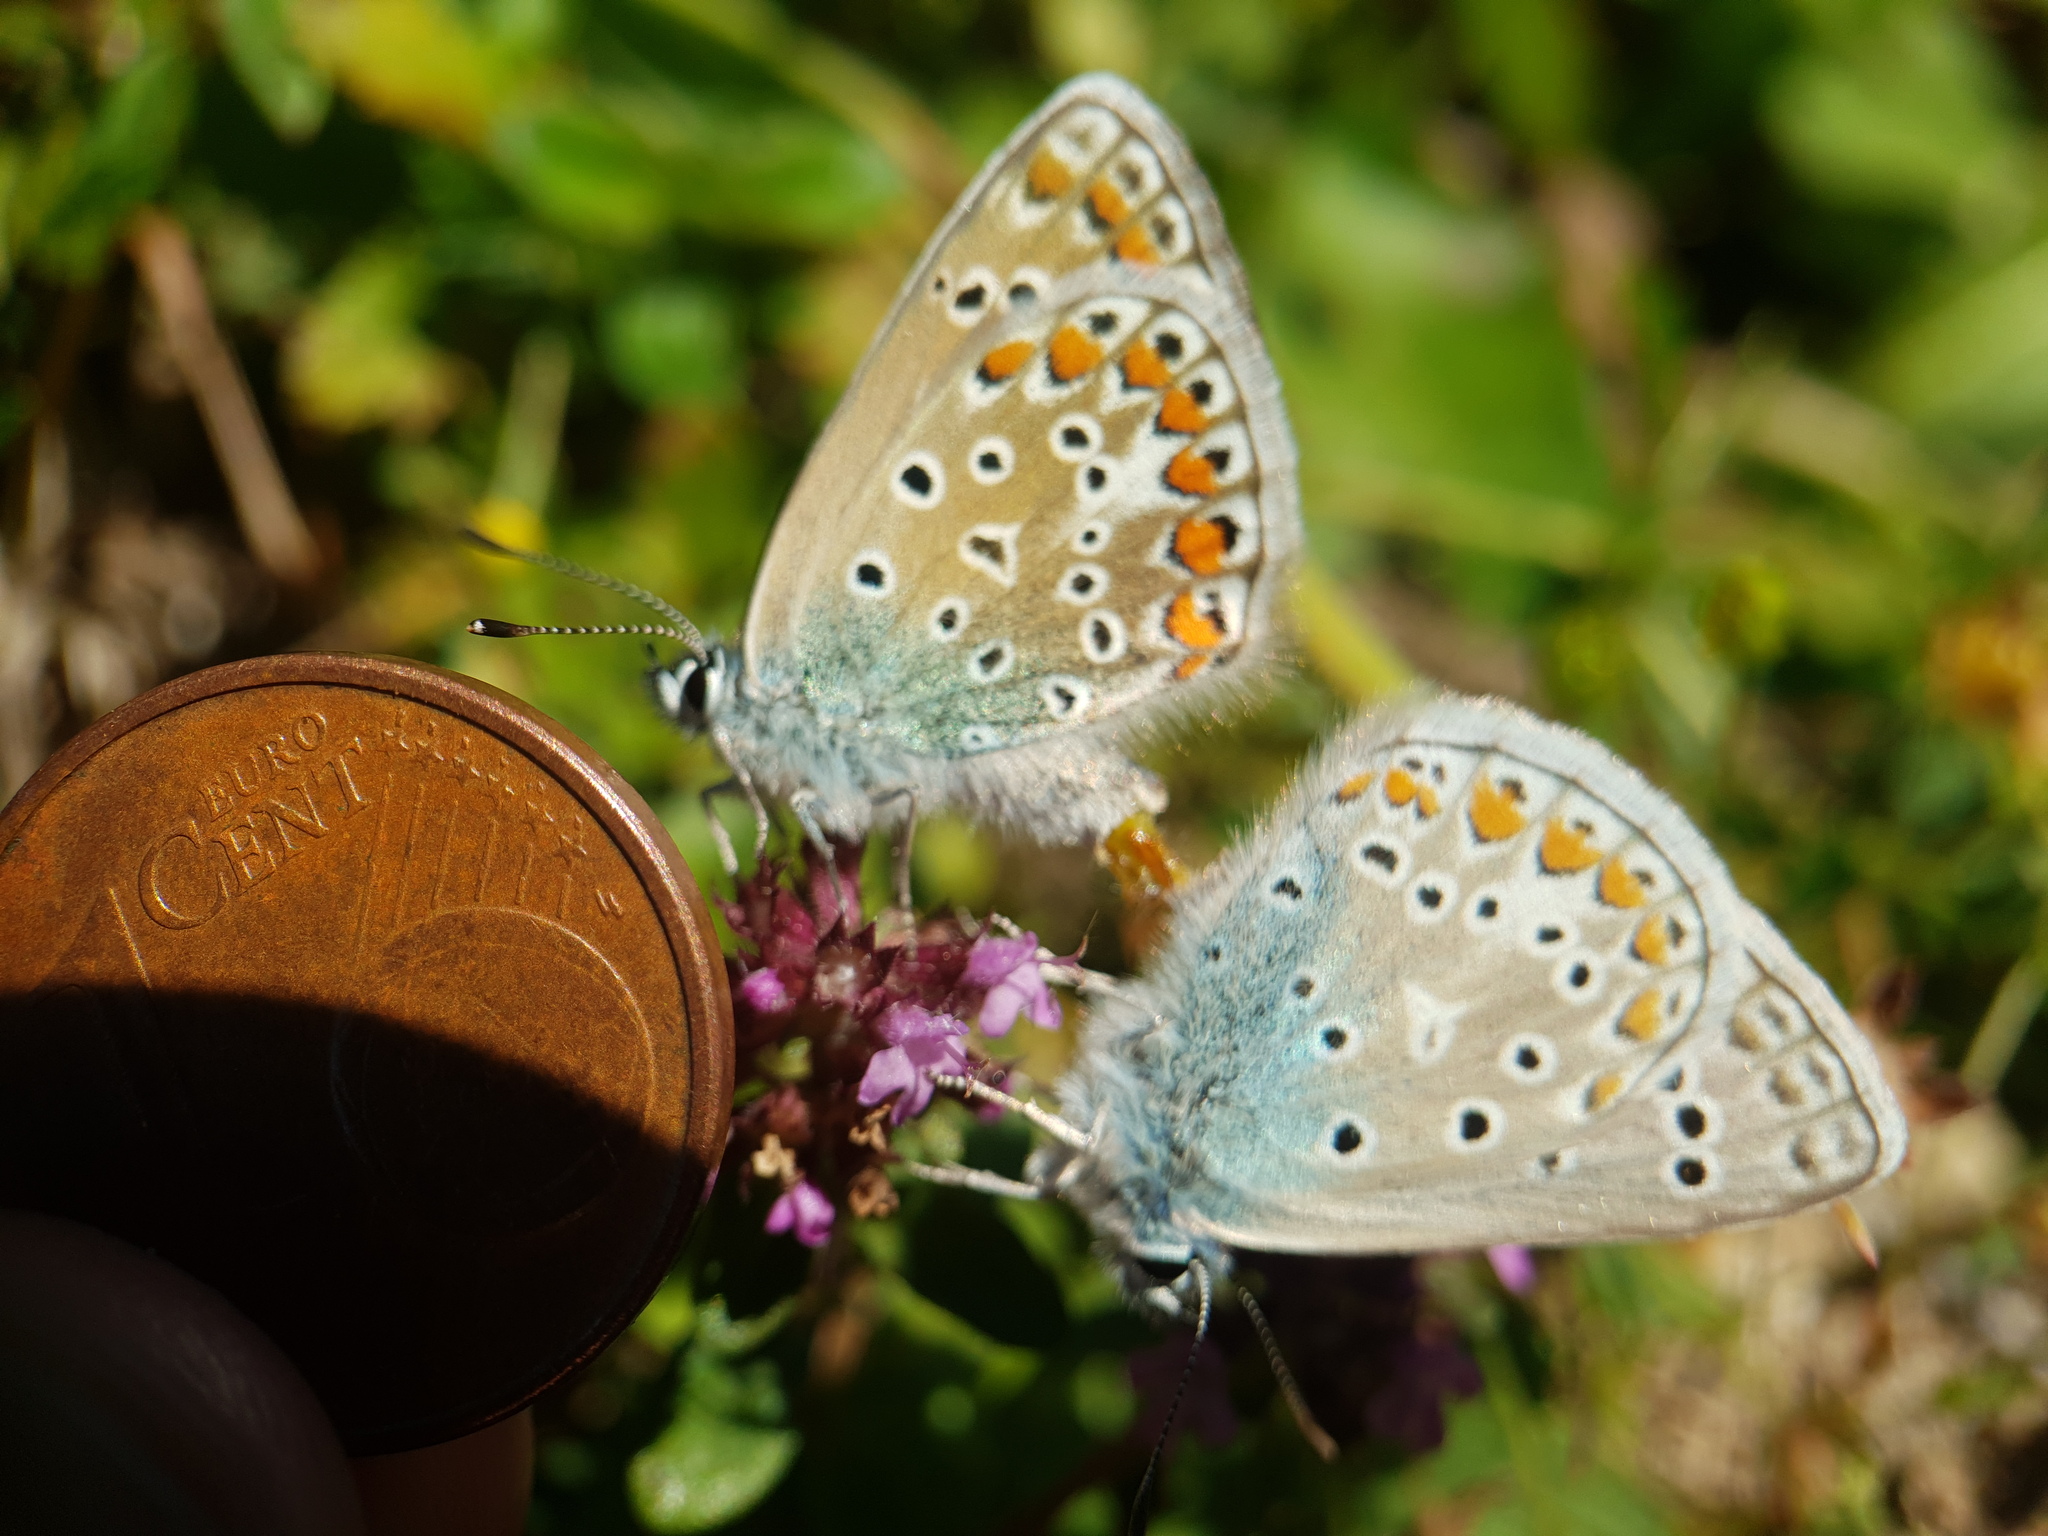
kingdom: Animalia
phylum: Arthropoda
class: Insecta
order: Lepidoptera
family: Lycaenidae
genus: Polyommatus
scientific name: Polyommatus icarus
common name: Common blue
